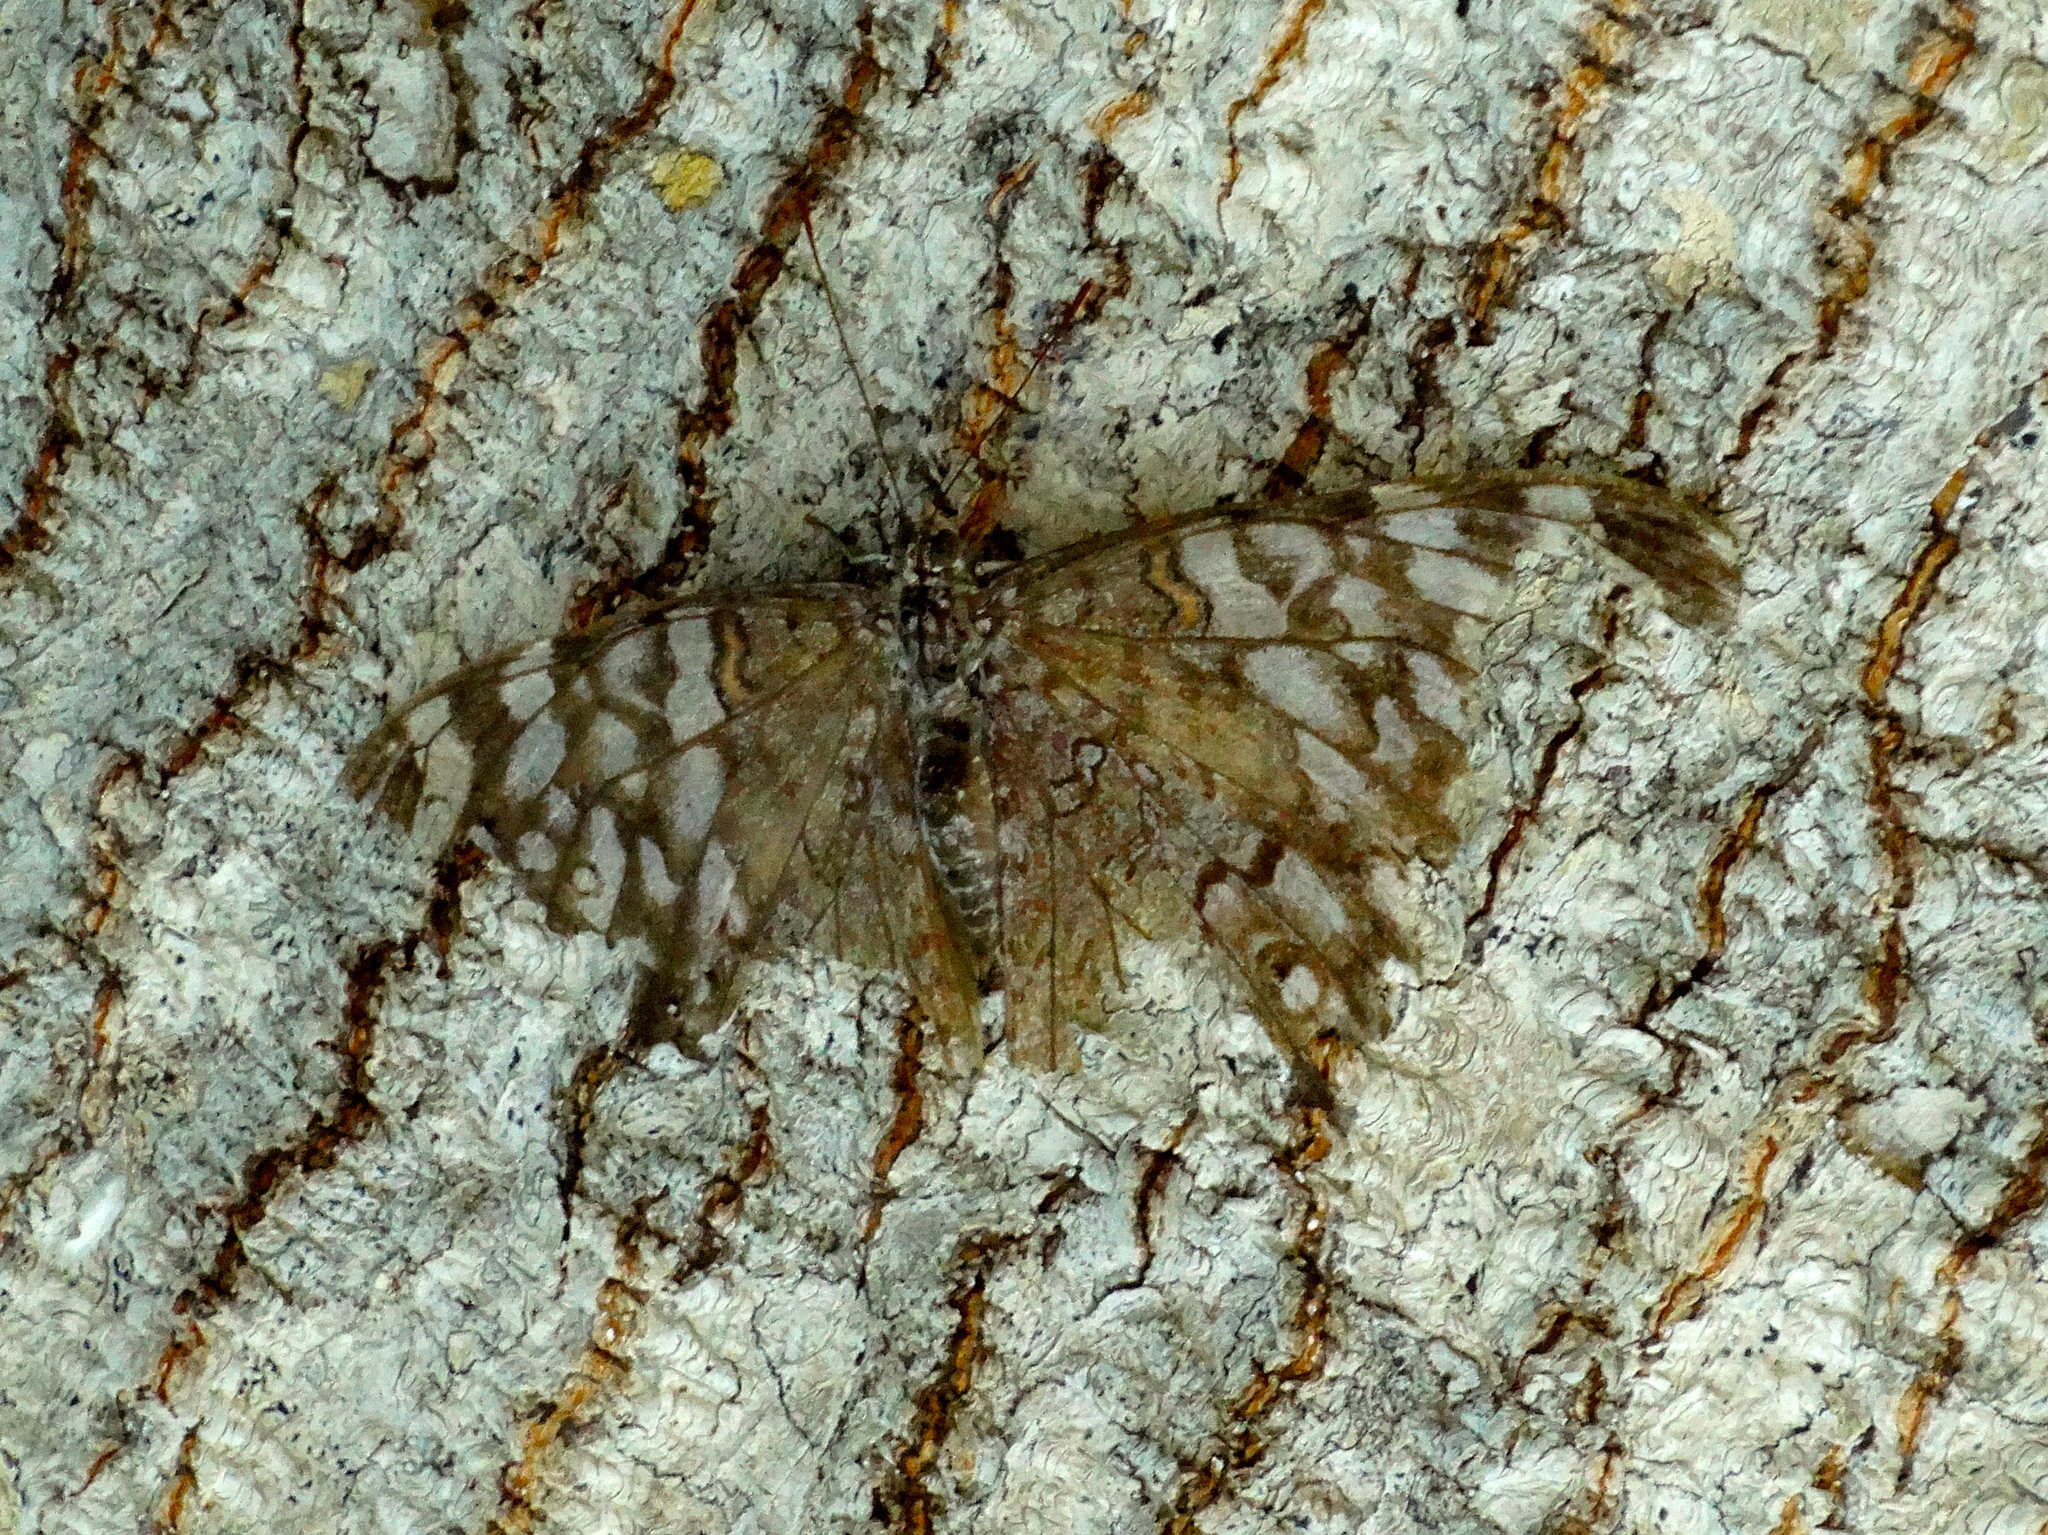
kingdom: Animalia
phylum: Arthropoda
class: Insecta
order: Lepidoptera
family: Nymphalidae
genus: Hamadryas
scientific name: Hamadryas februa
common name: Gray cracker
